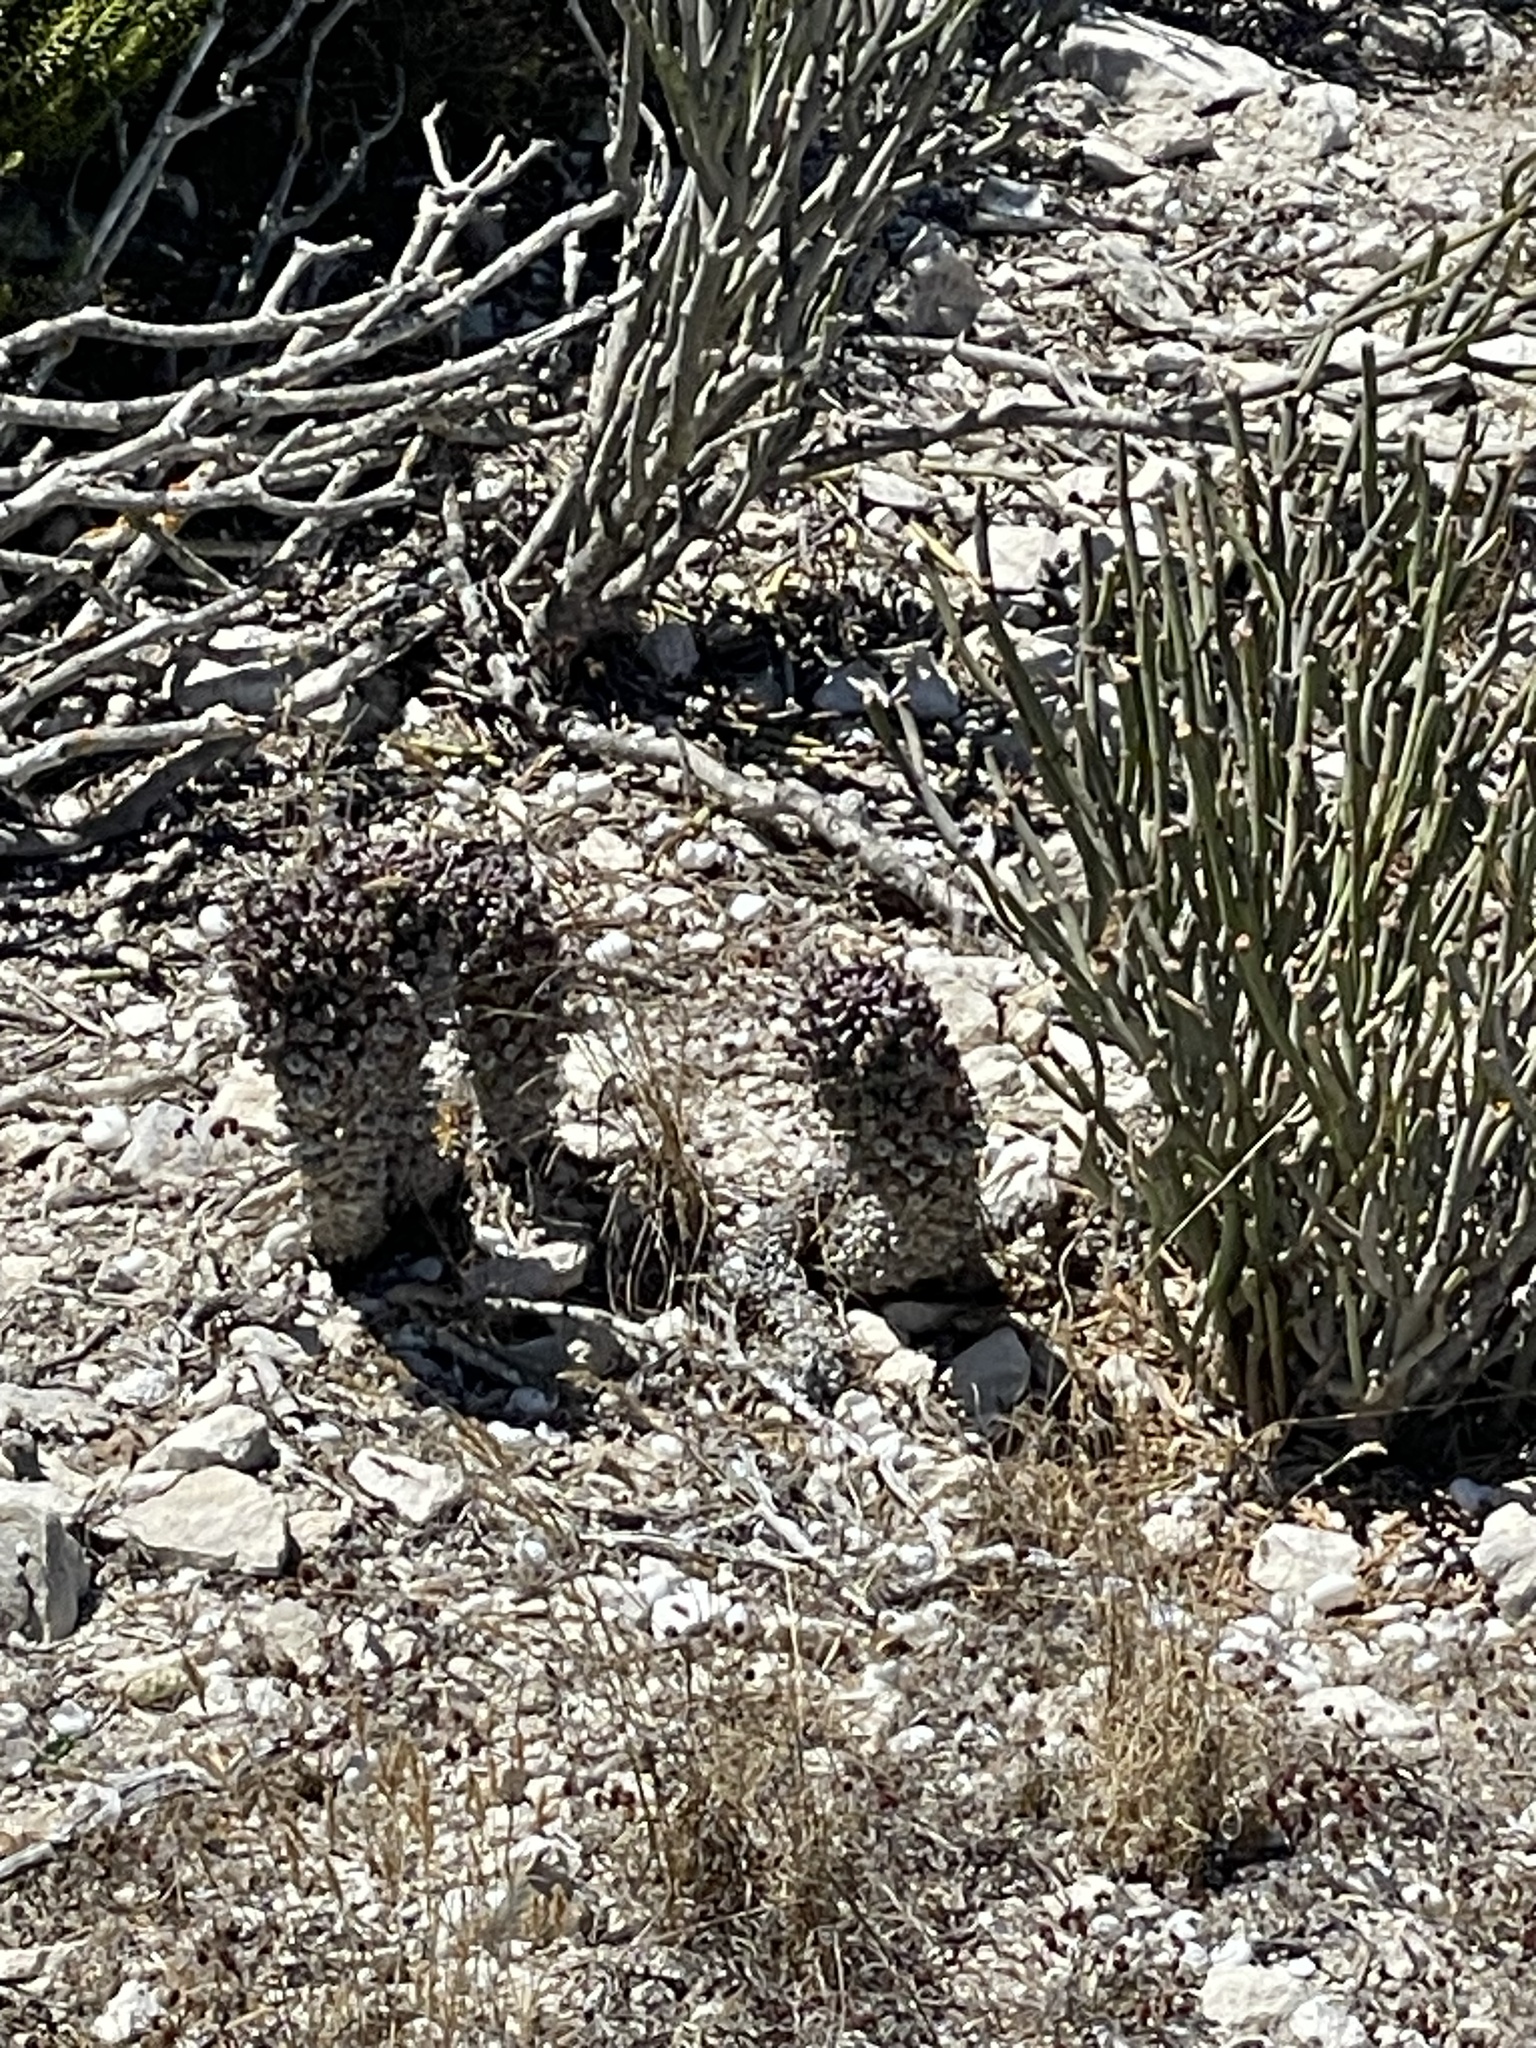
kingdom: Plantae
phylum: Tracheophyta
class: Magnoliopsida
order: Malpighiales
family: Euphorbiaceae
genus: Euphorbia
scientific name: Euphorbia caput-medusae
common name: Medusa's-head
